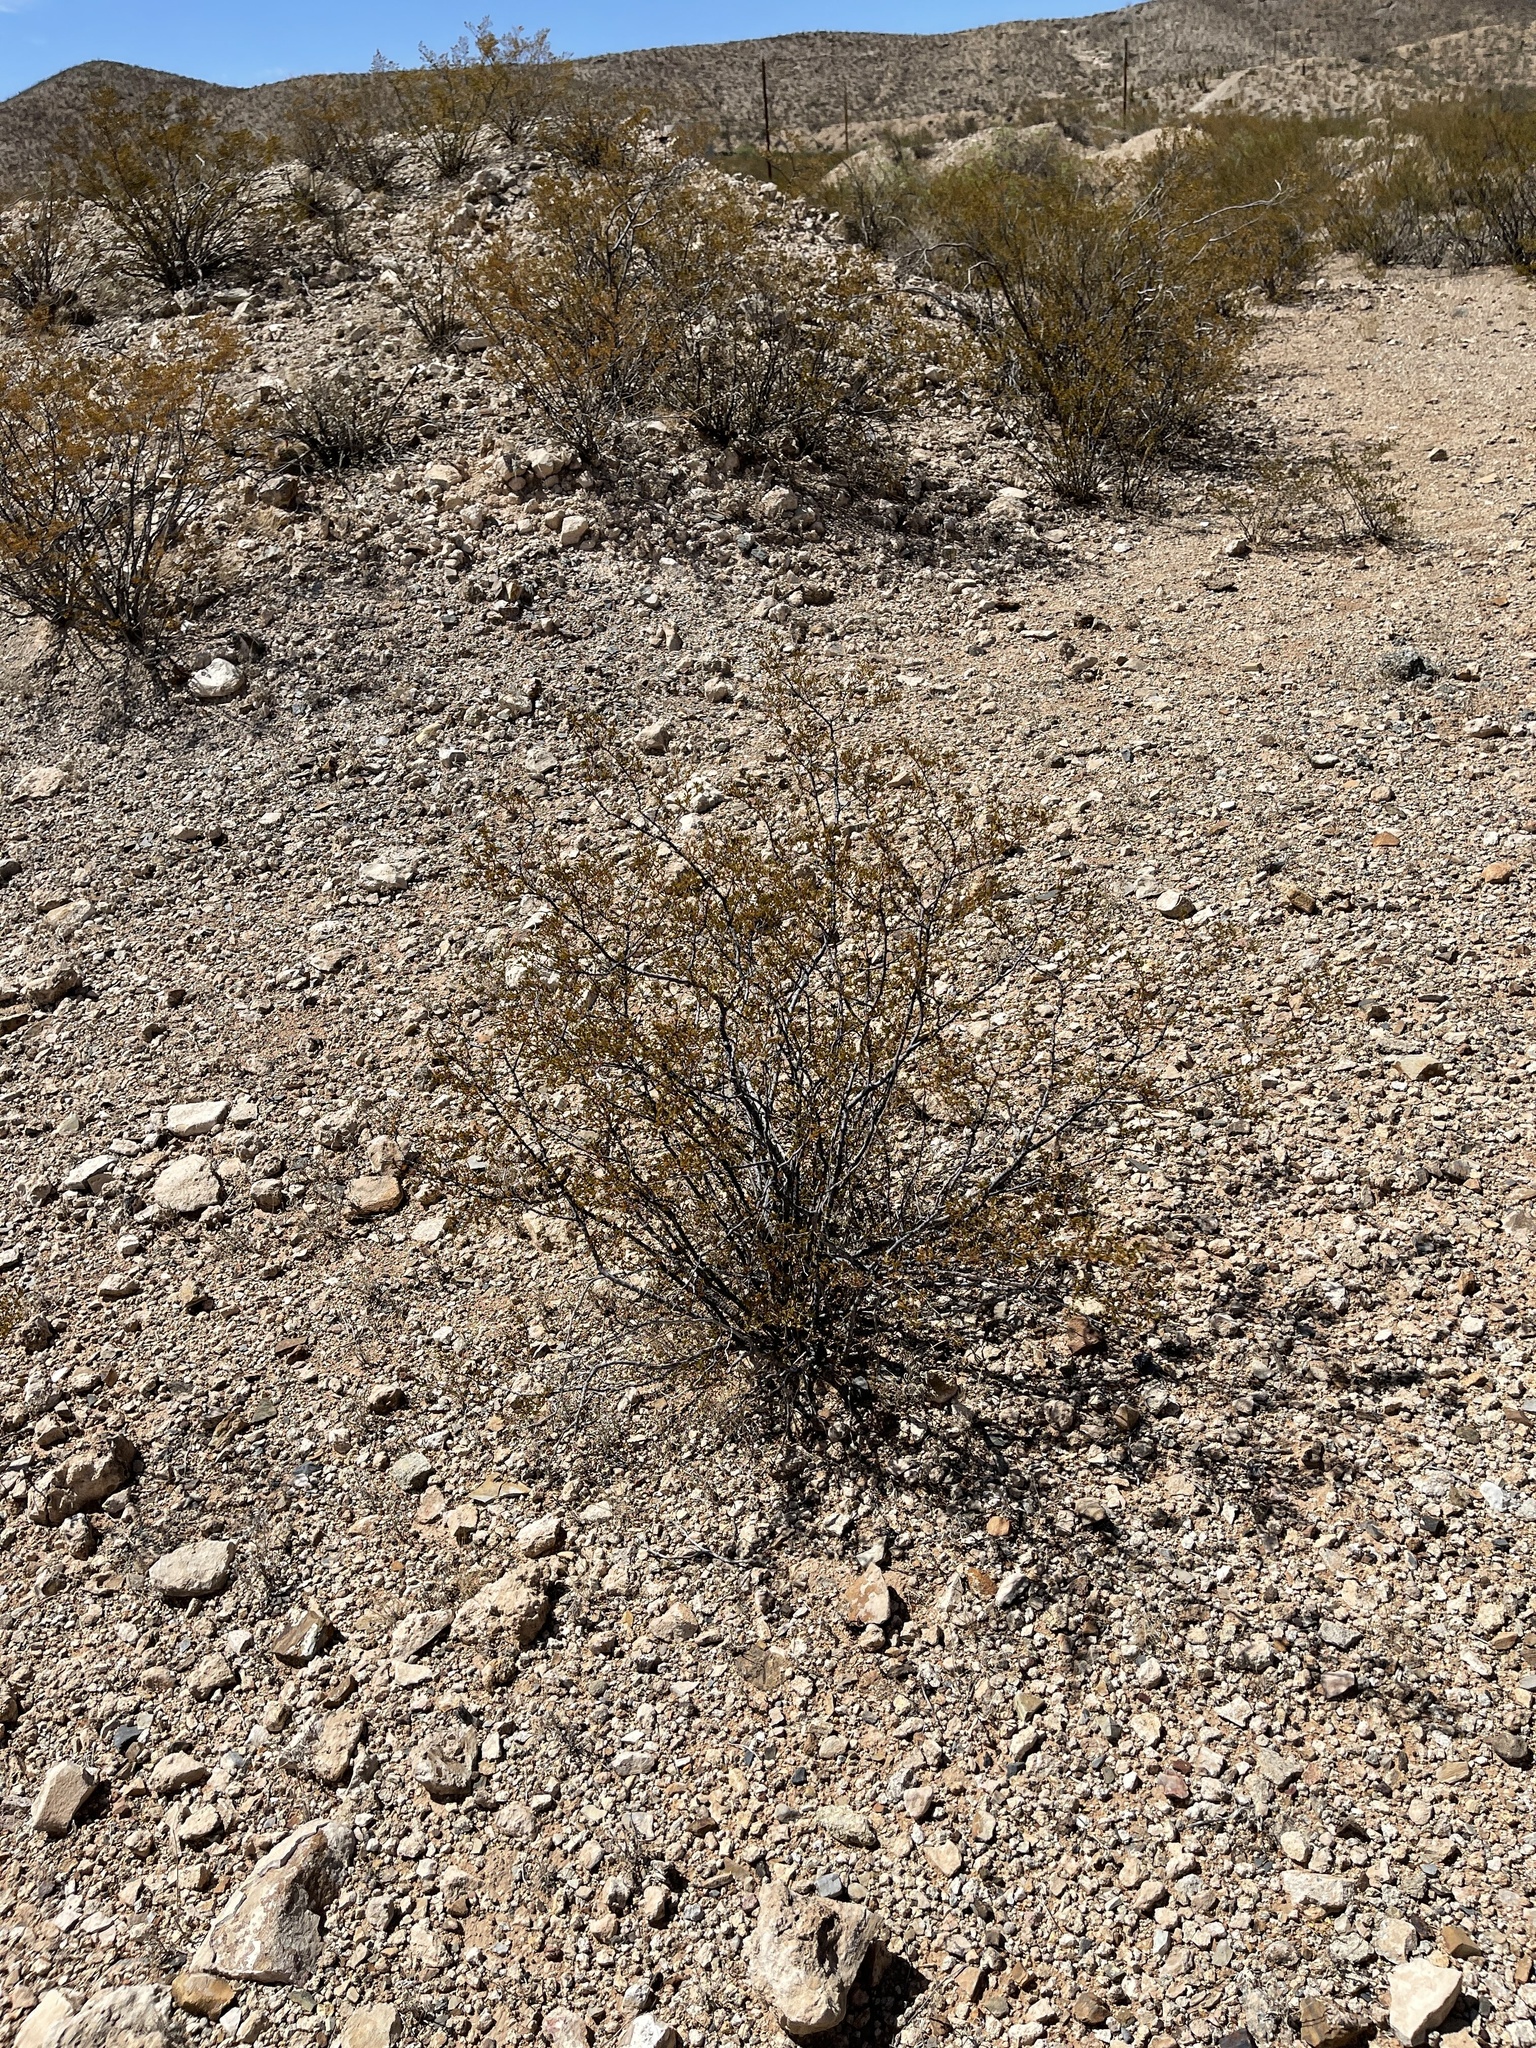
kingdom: Plantae
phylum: Tracheophyta
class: Magnoliopsida
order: Zygophyllales
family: Zygophyllaceae
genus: Larrea
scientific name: Larrea tridentata
